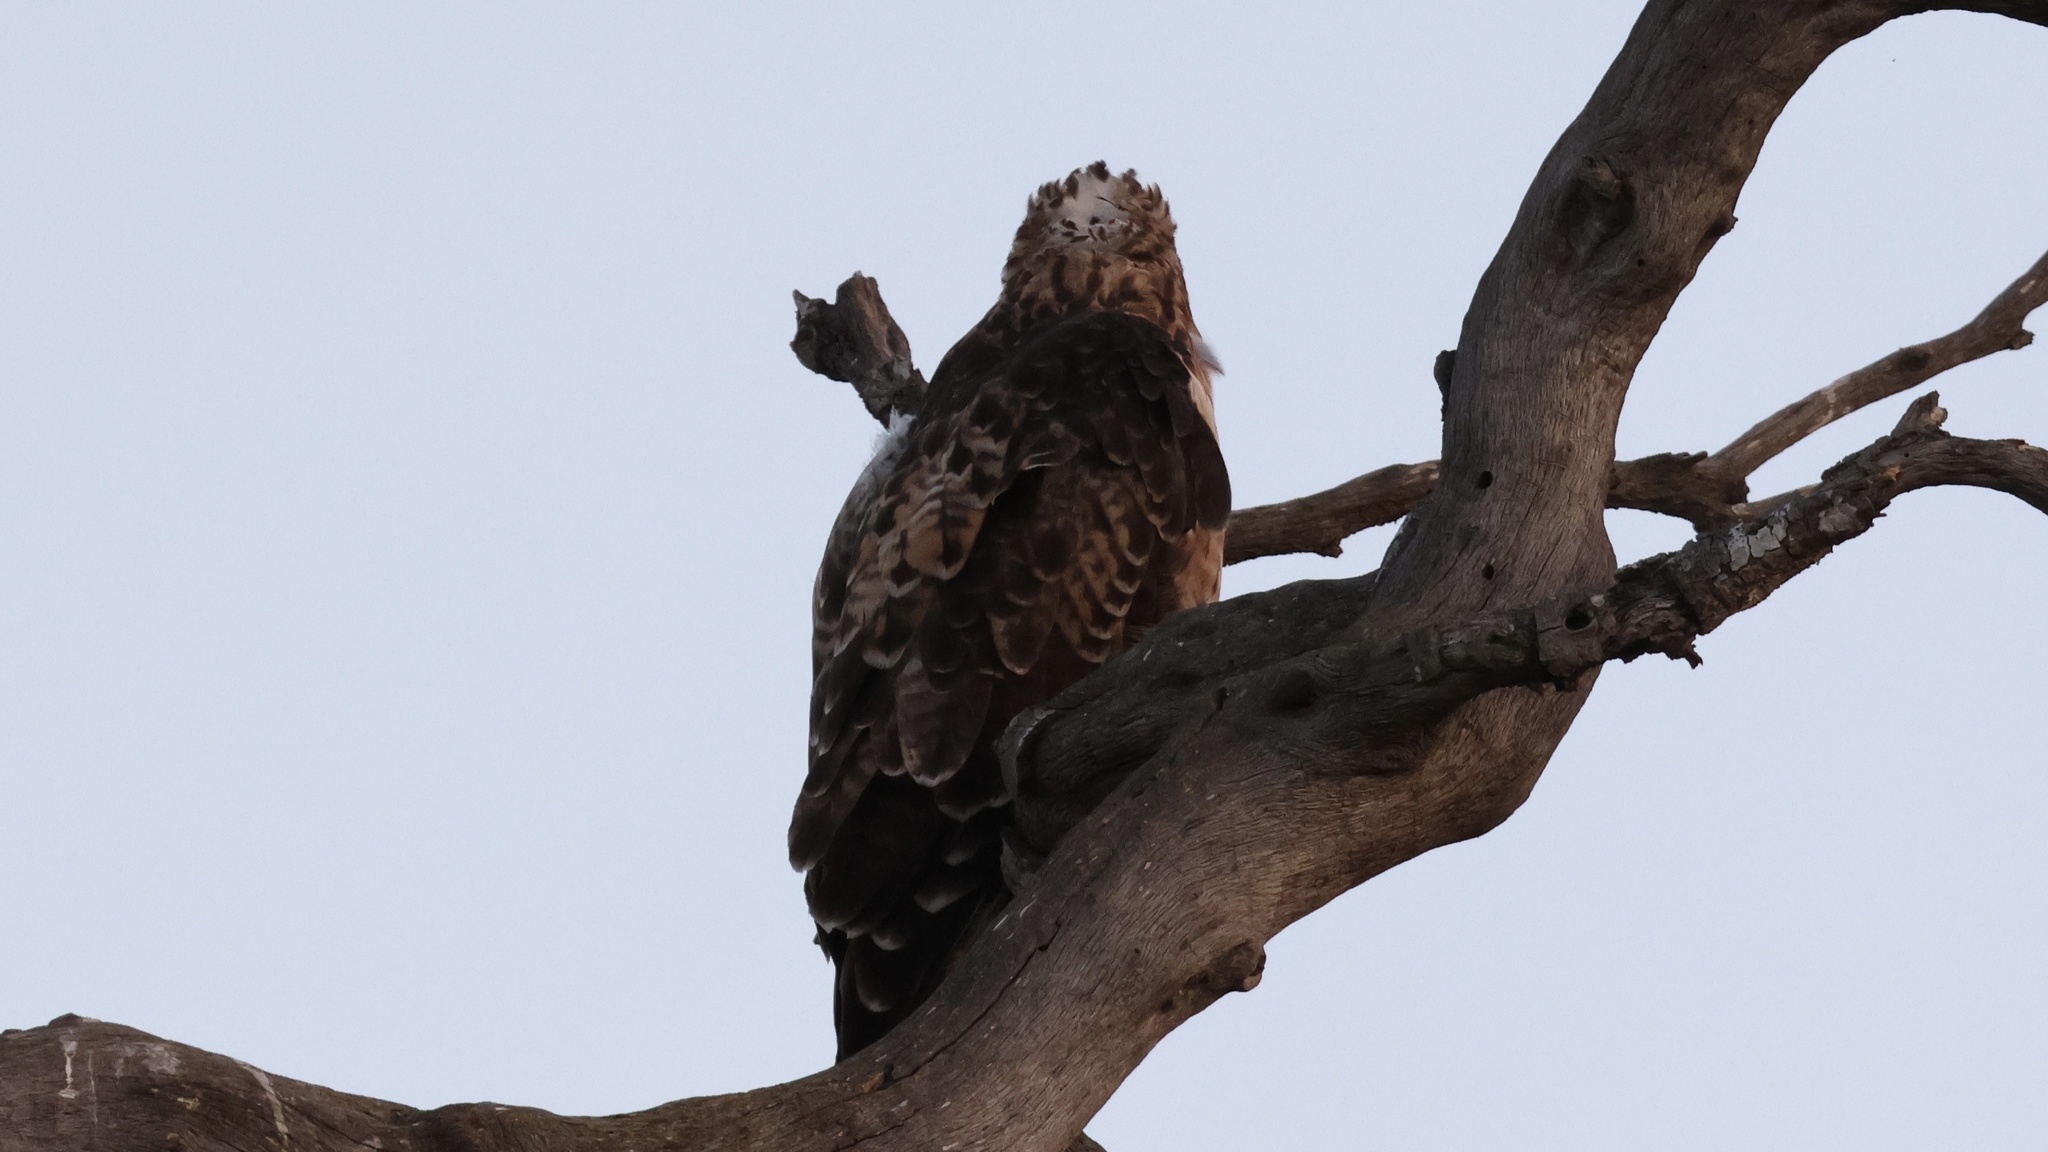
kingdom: Animalia
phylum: Chordata
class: Aves
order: Accipitriformes
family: Accipitridae
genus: Buteo
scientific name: Buteo jamaicensis
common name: Red-tailed hawk
